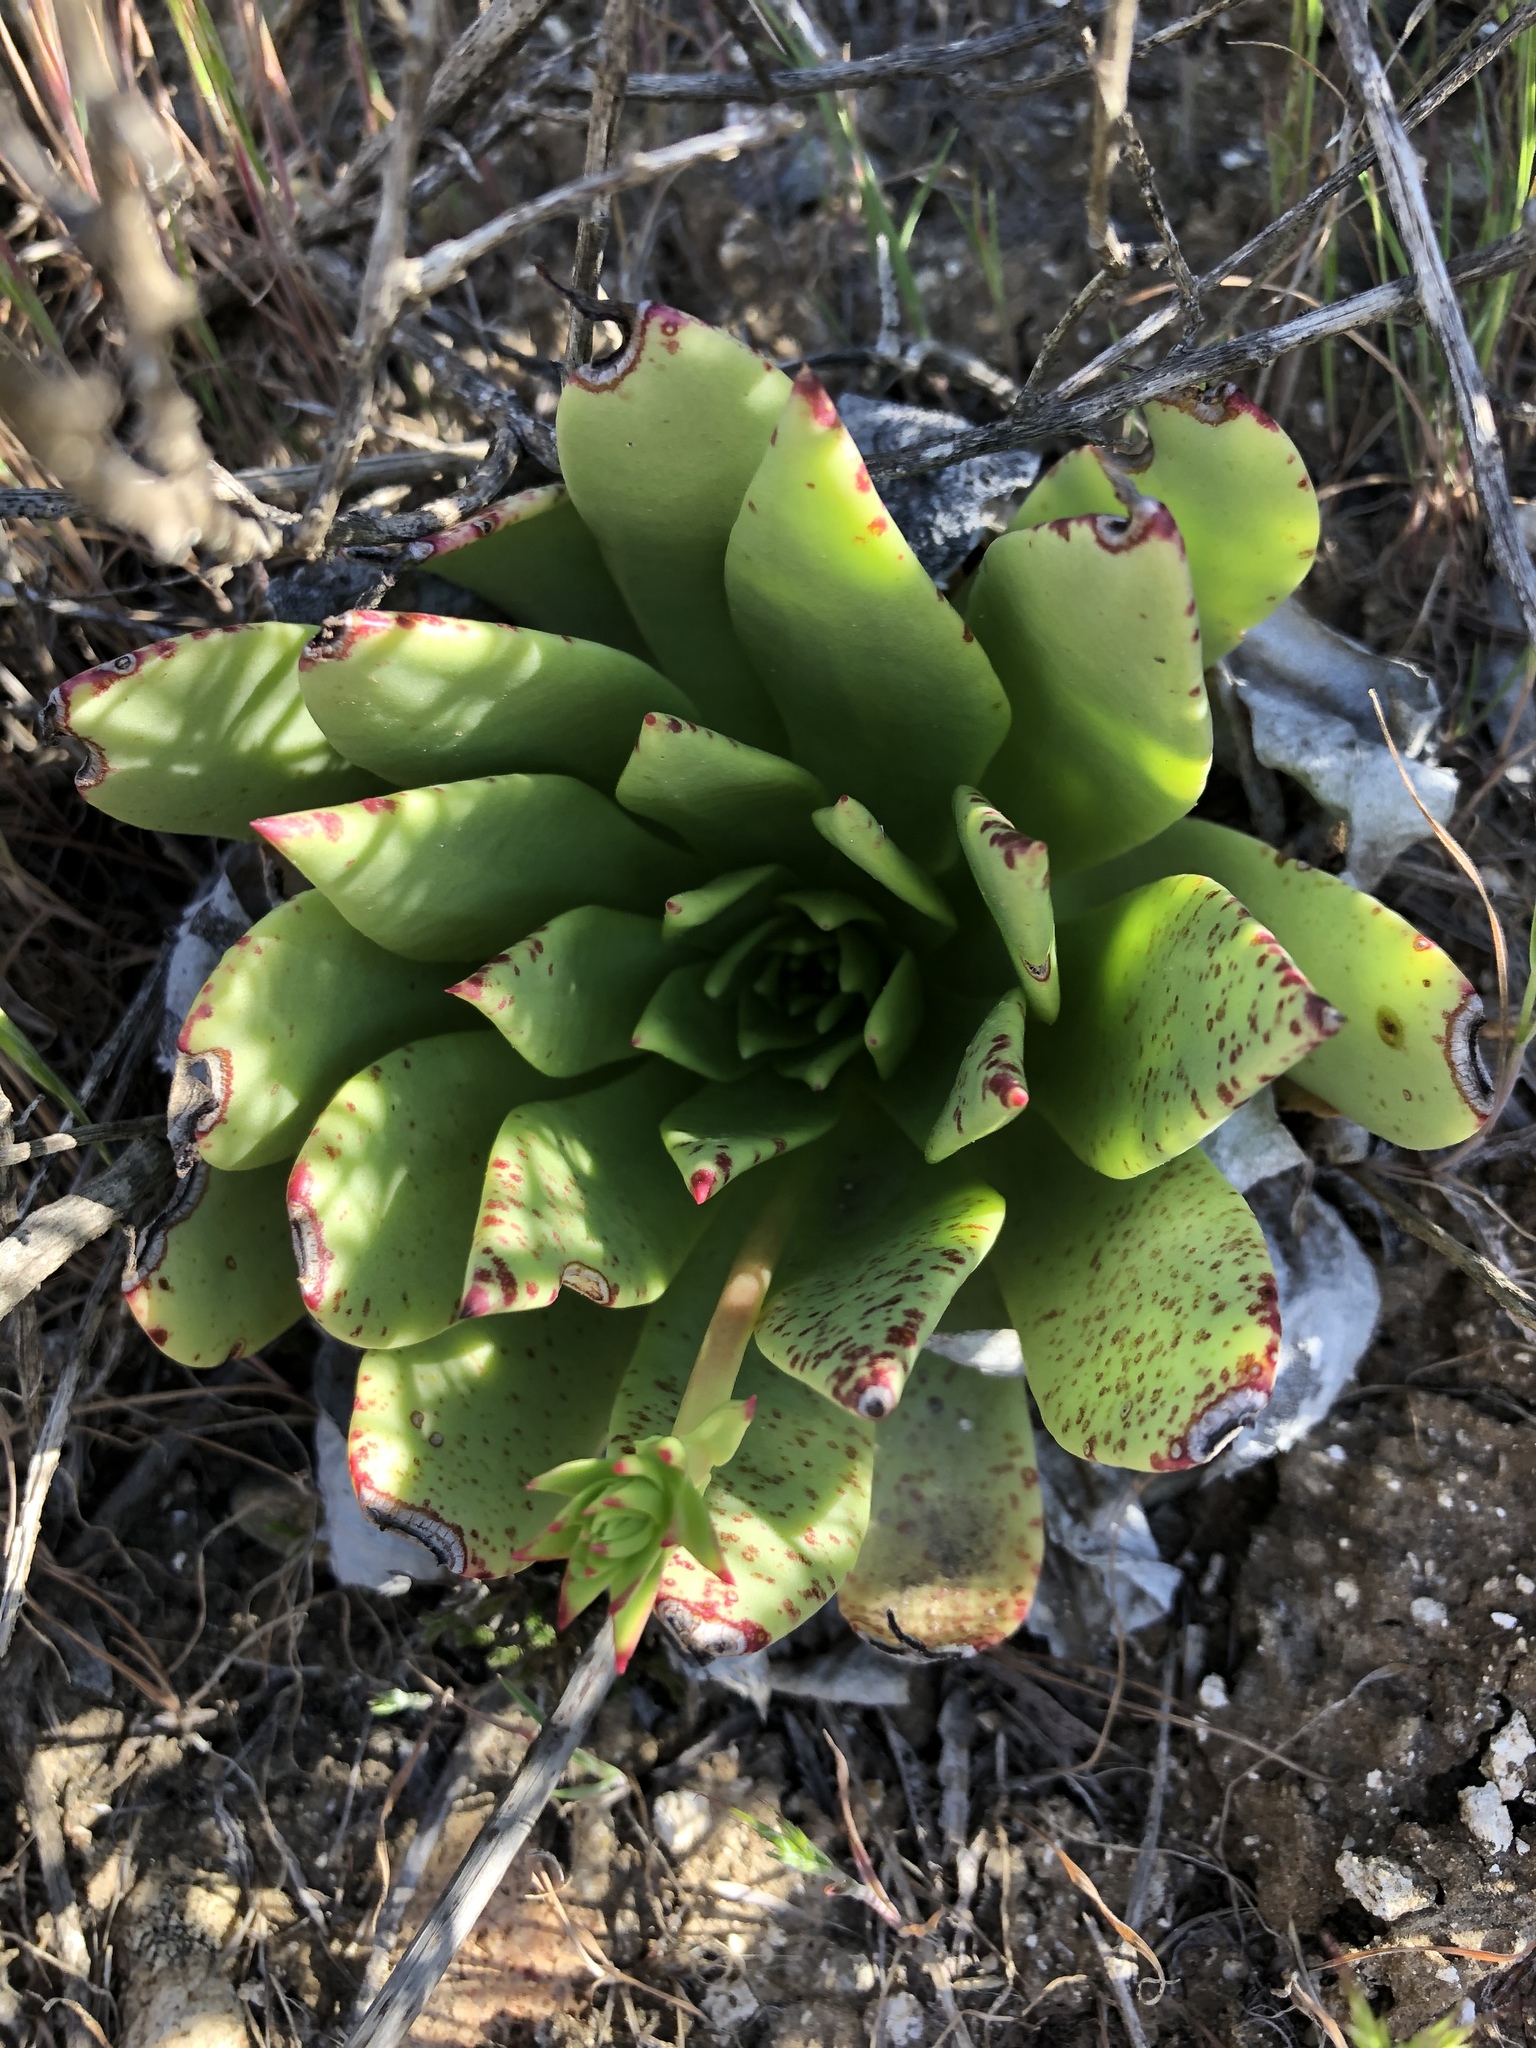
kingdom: Plantae
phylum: Tracheophyta
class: Magnoliopsida
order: Saxifragales
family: Crassulaceae
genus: Dudleya
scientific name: Dudleya brittonii
